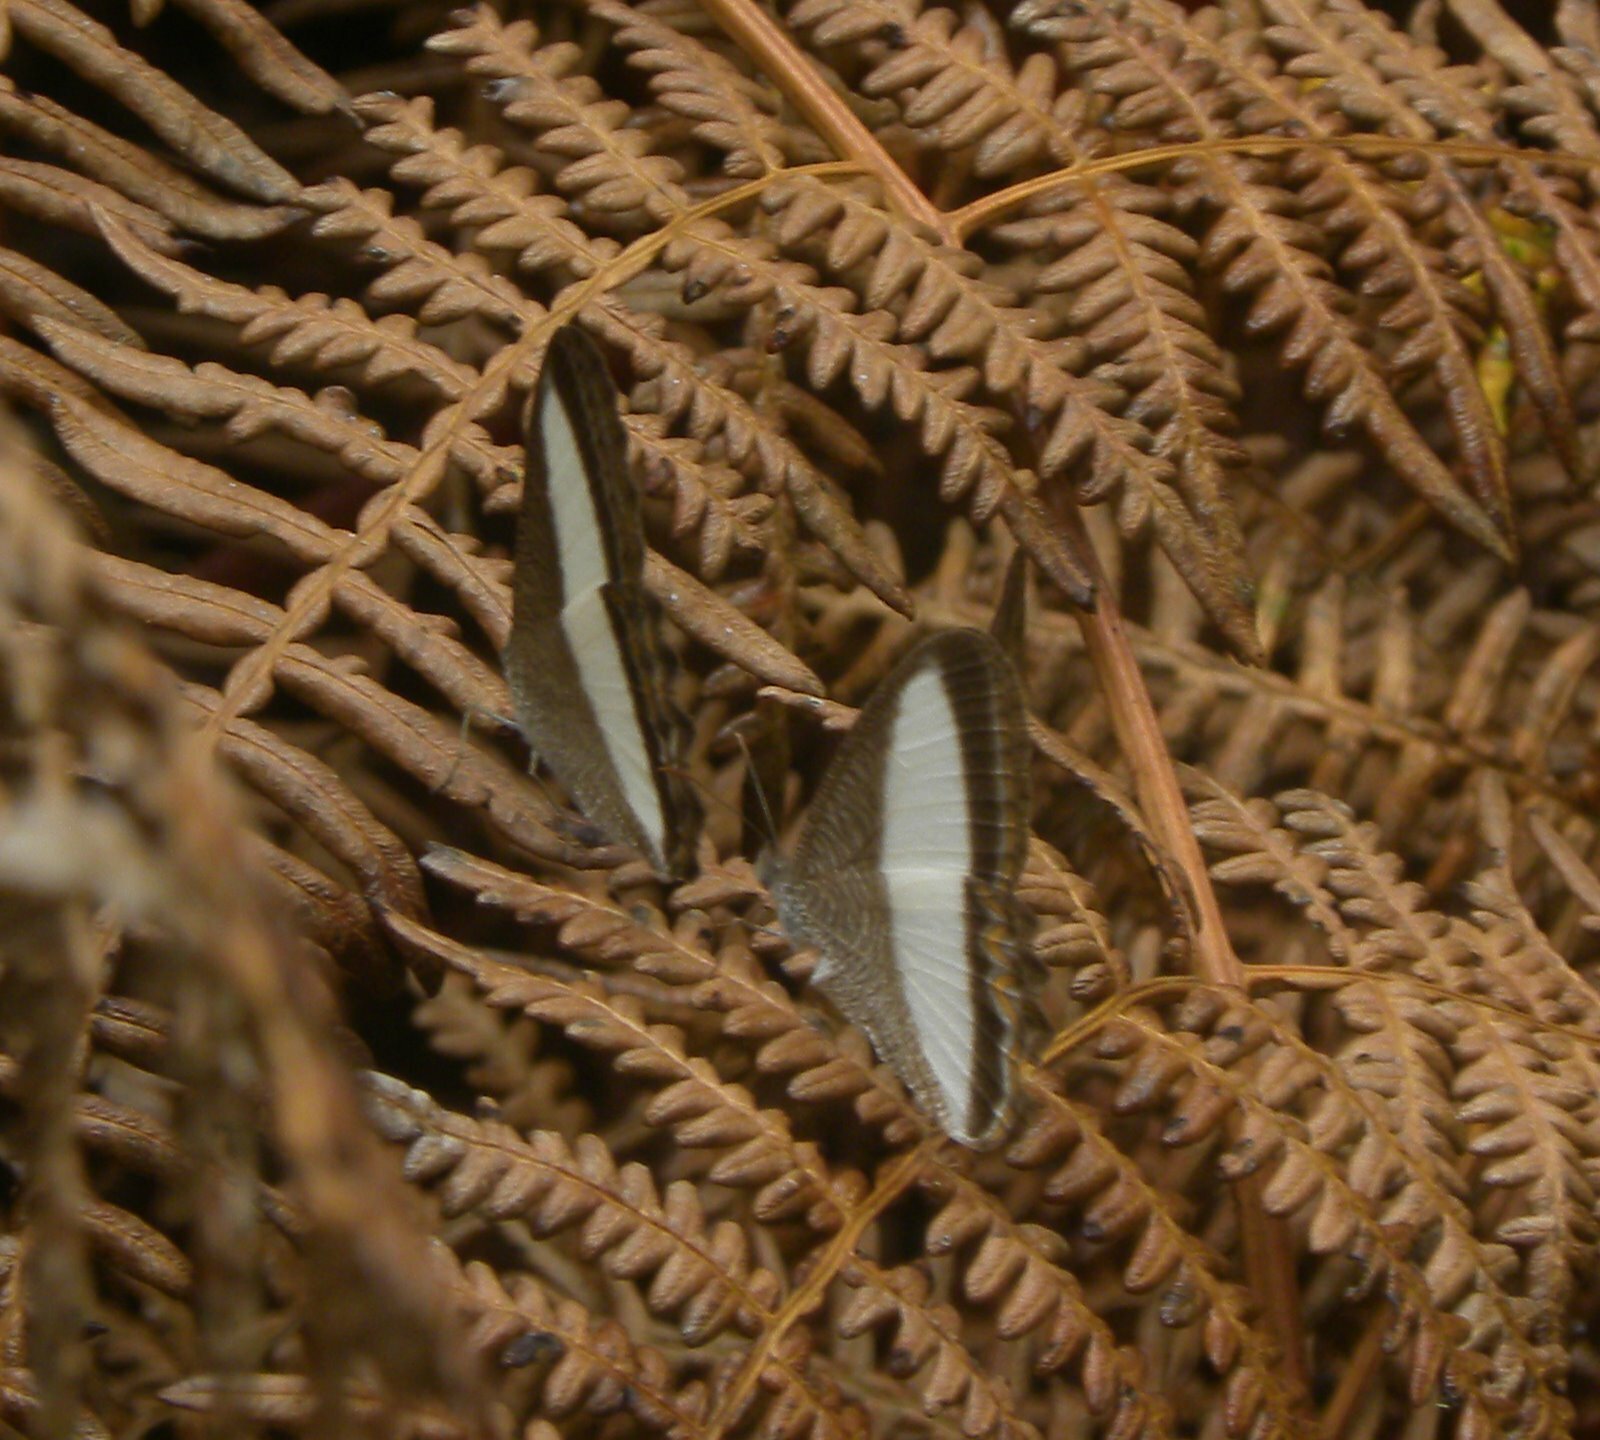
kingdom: Animalia
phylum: Arthropoda
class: Insecta
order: Lepidoptera
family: Nymphalidae
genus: Oressinoma
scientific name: Oressinoma typhla
